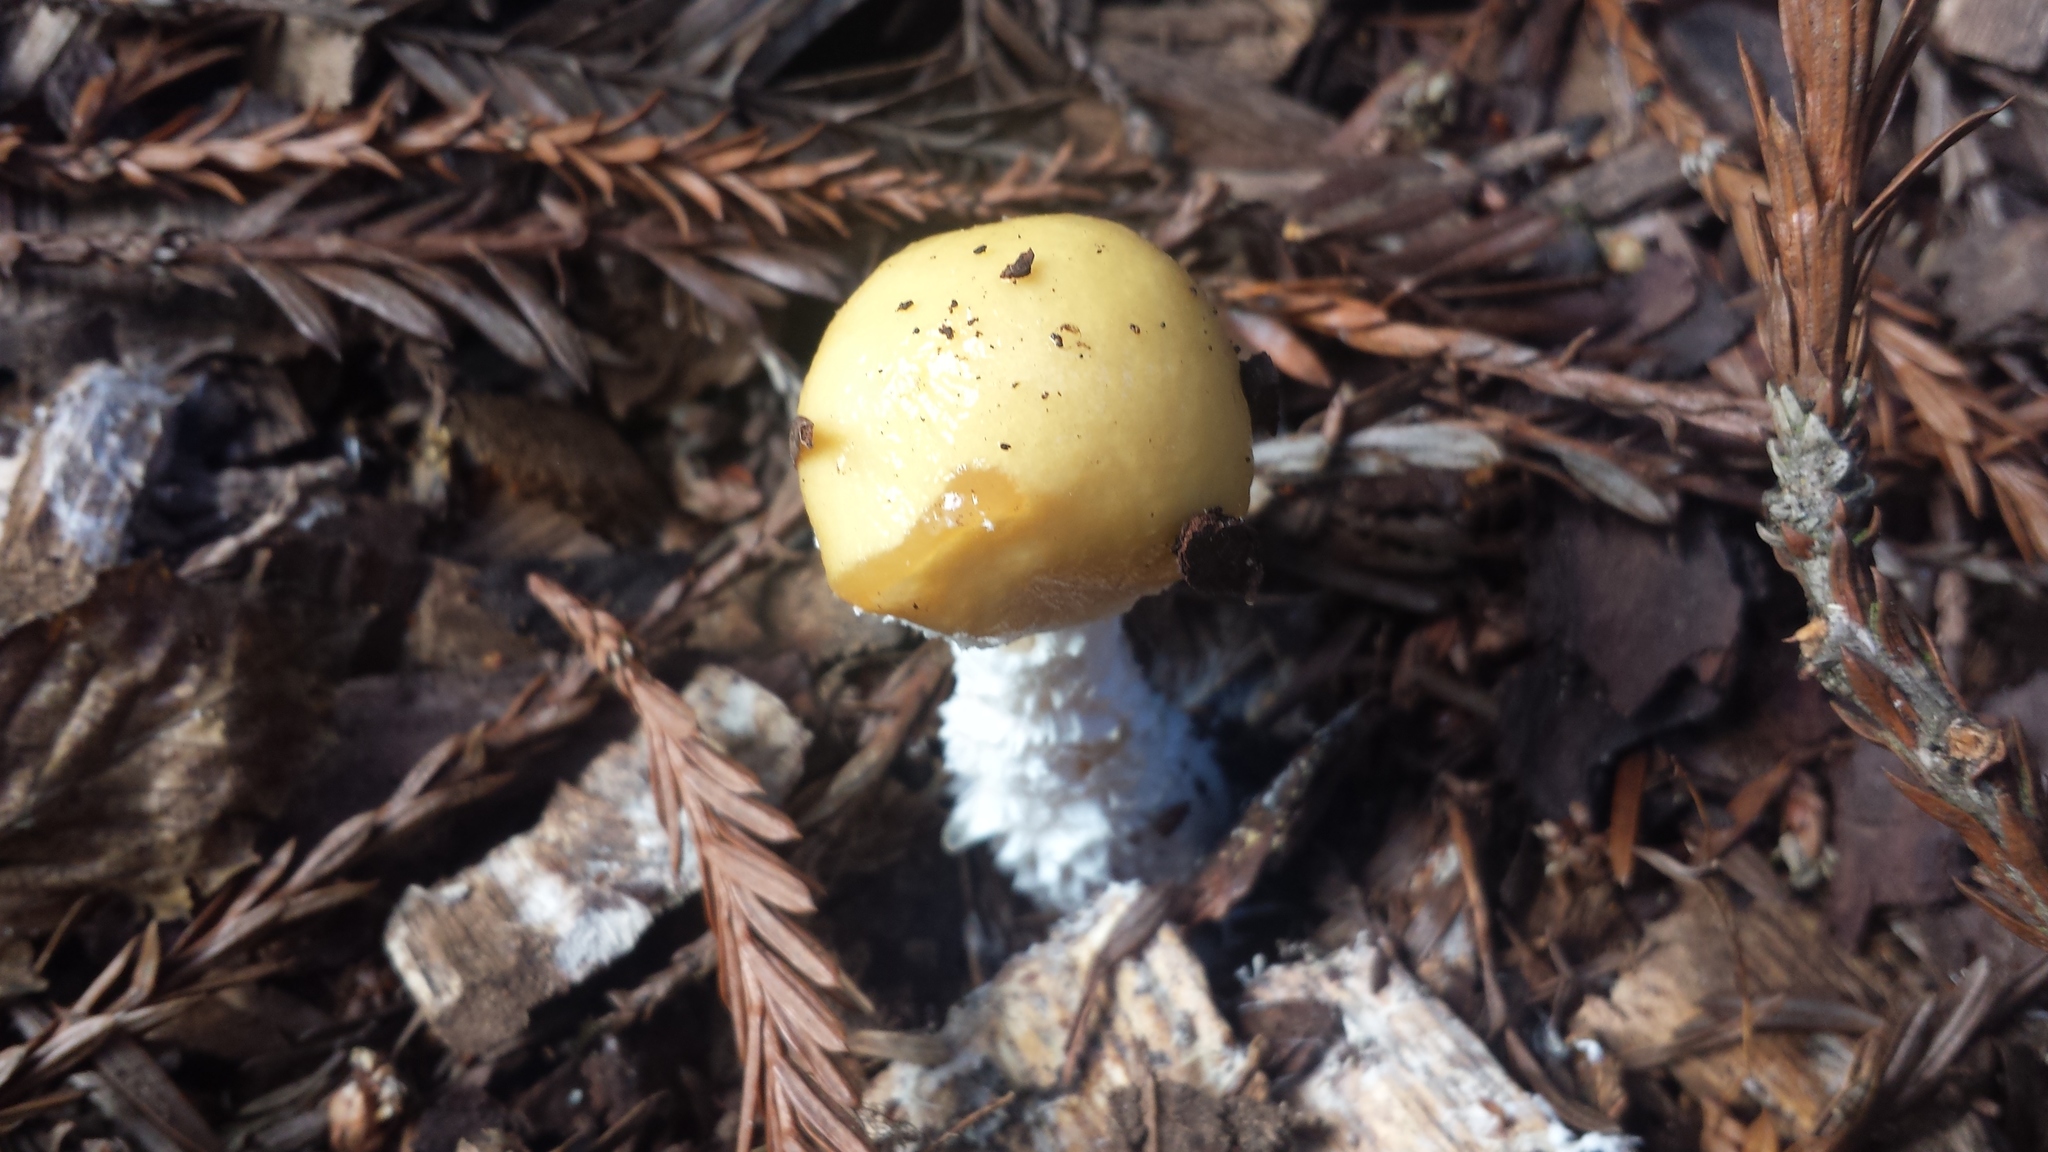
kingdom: Fungi
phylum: Basidiomycota
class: Agaricomycetes
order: Agaricales
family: Strophariaceae
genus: Stropharia
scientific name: Stropharia ambigua
